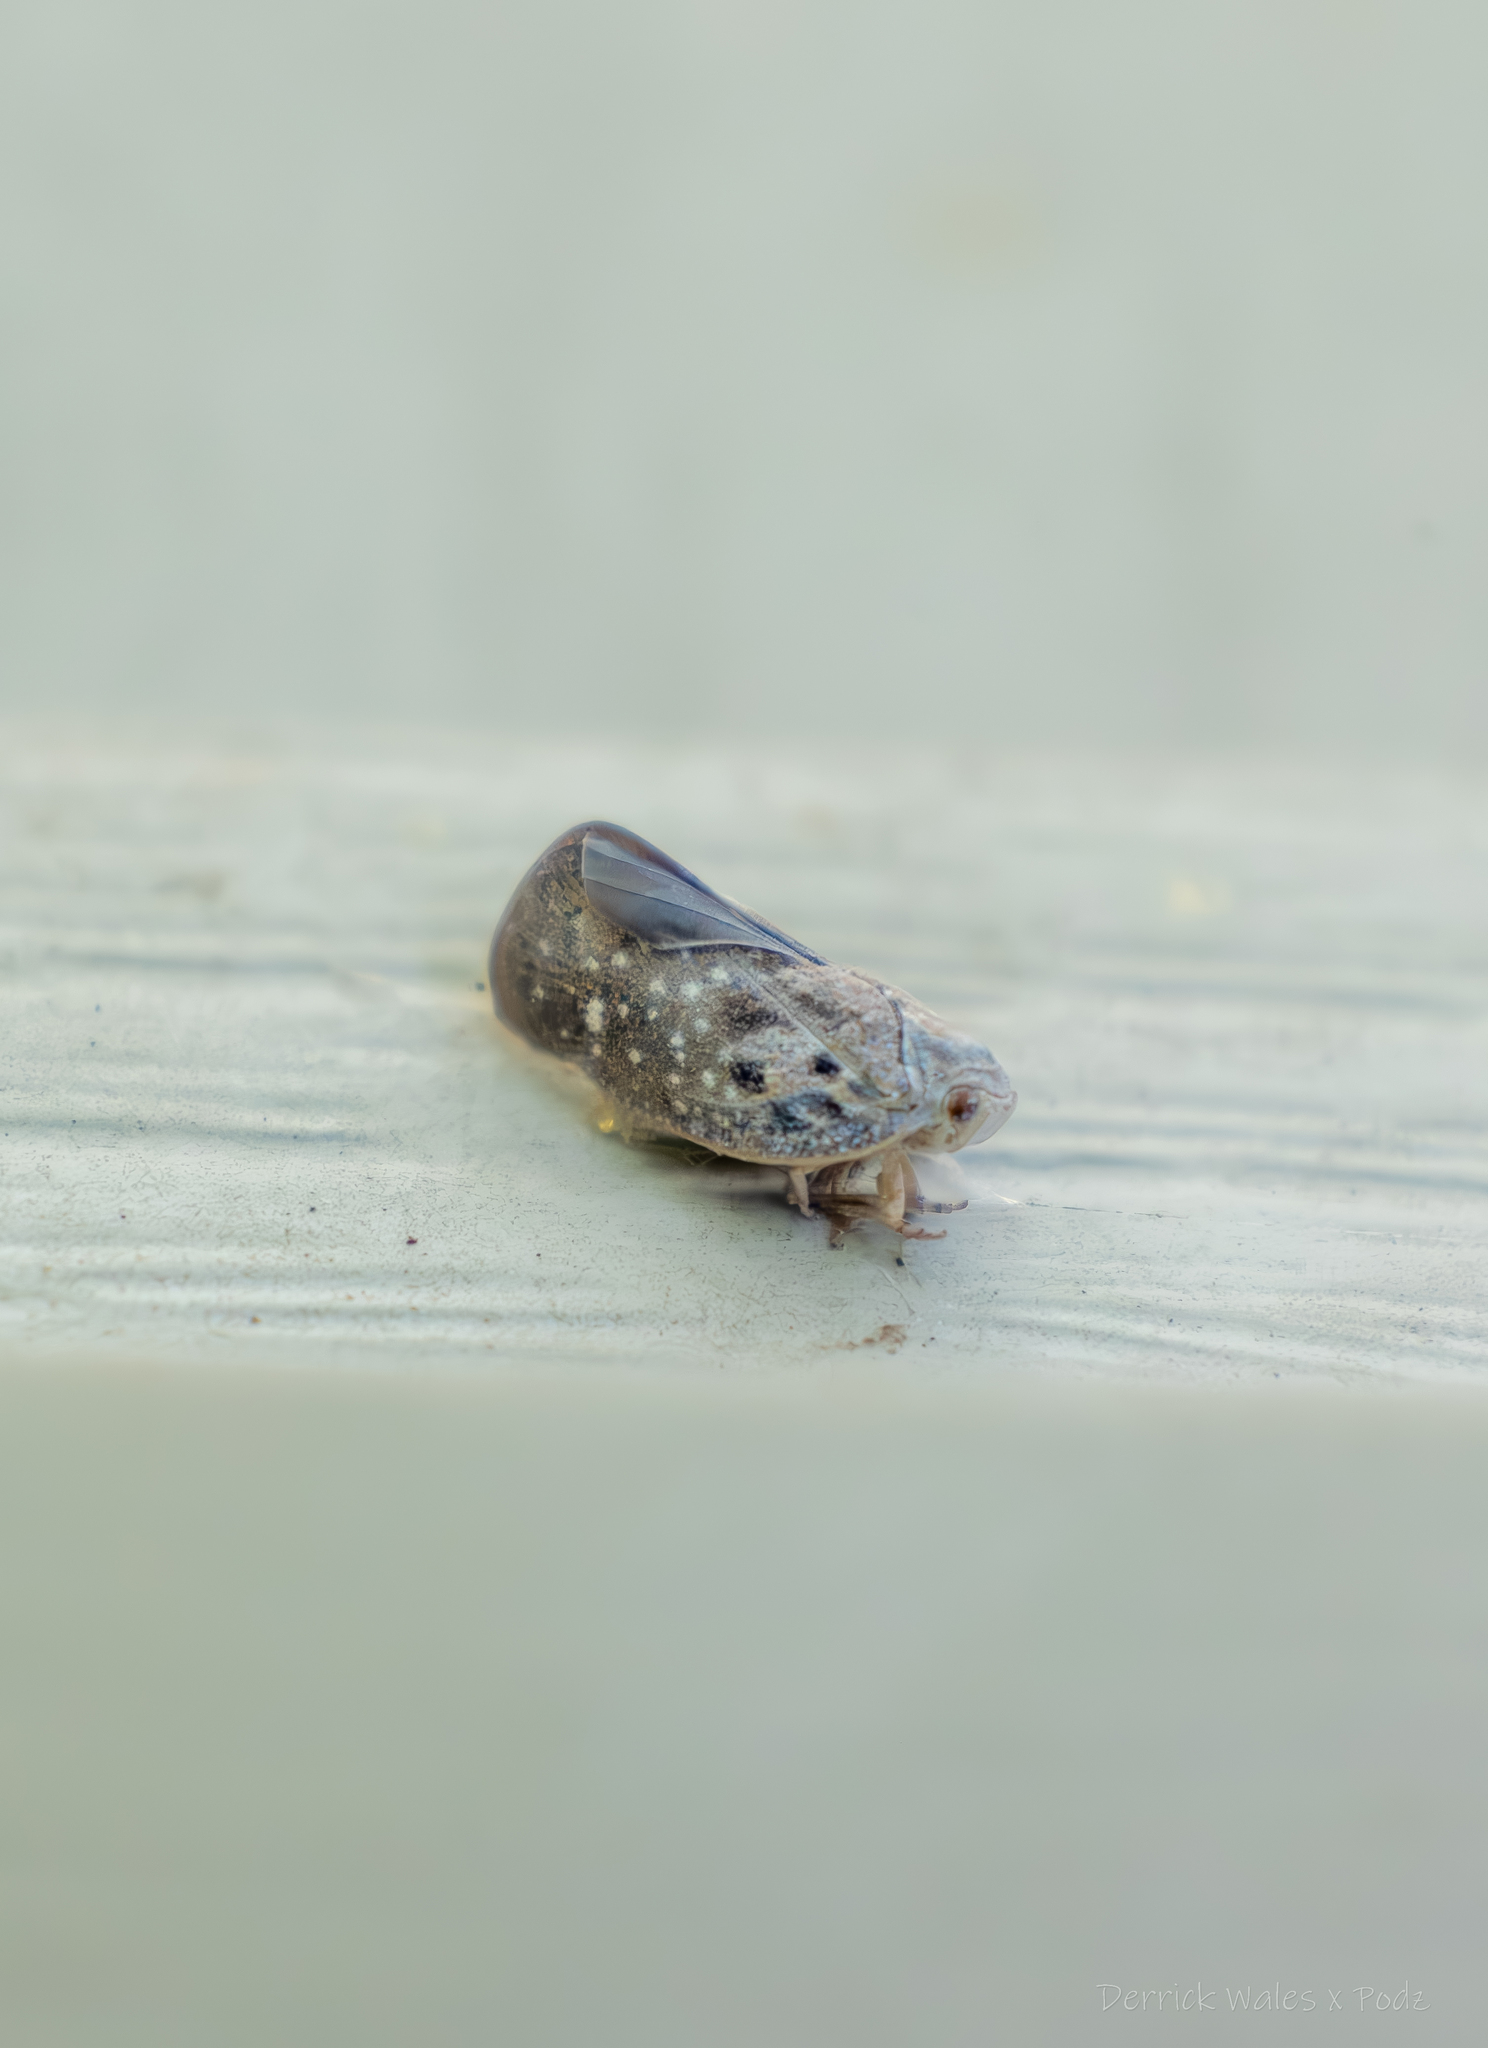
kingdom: Animalia
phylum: Arthropoda
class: Insecta
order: Hemiptera
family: Flatidae
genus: Metcalfa
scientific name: Metcalfa pruinosa
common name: Citrus flatid planthopper
